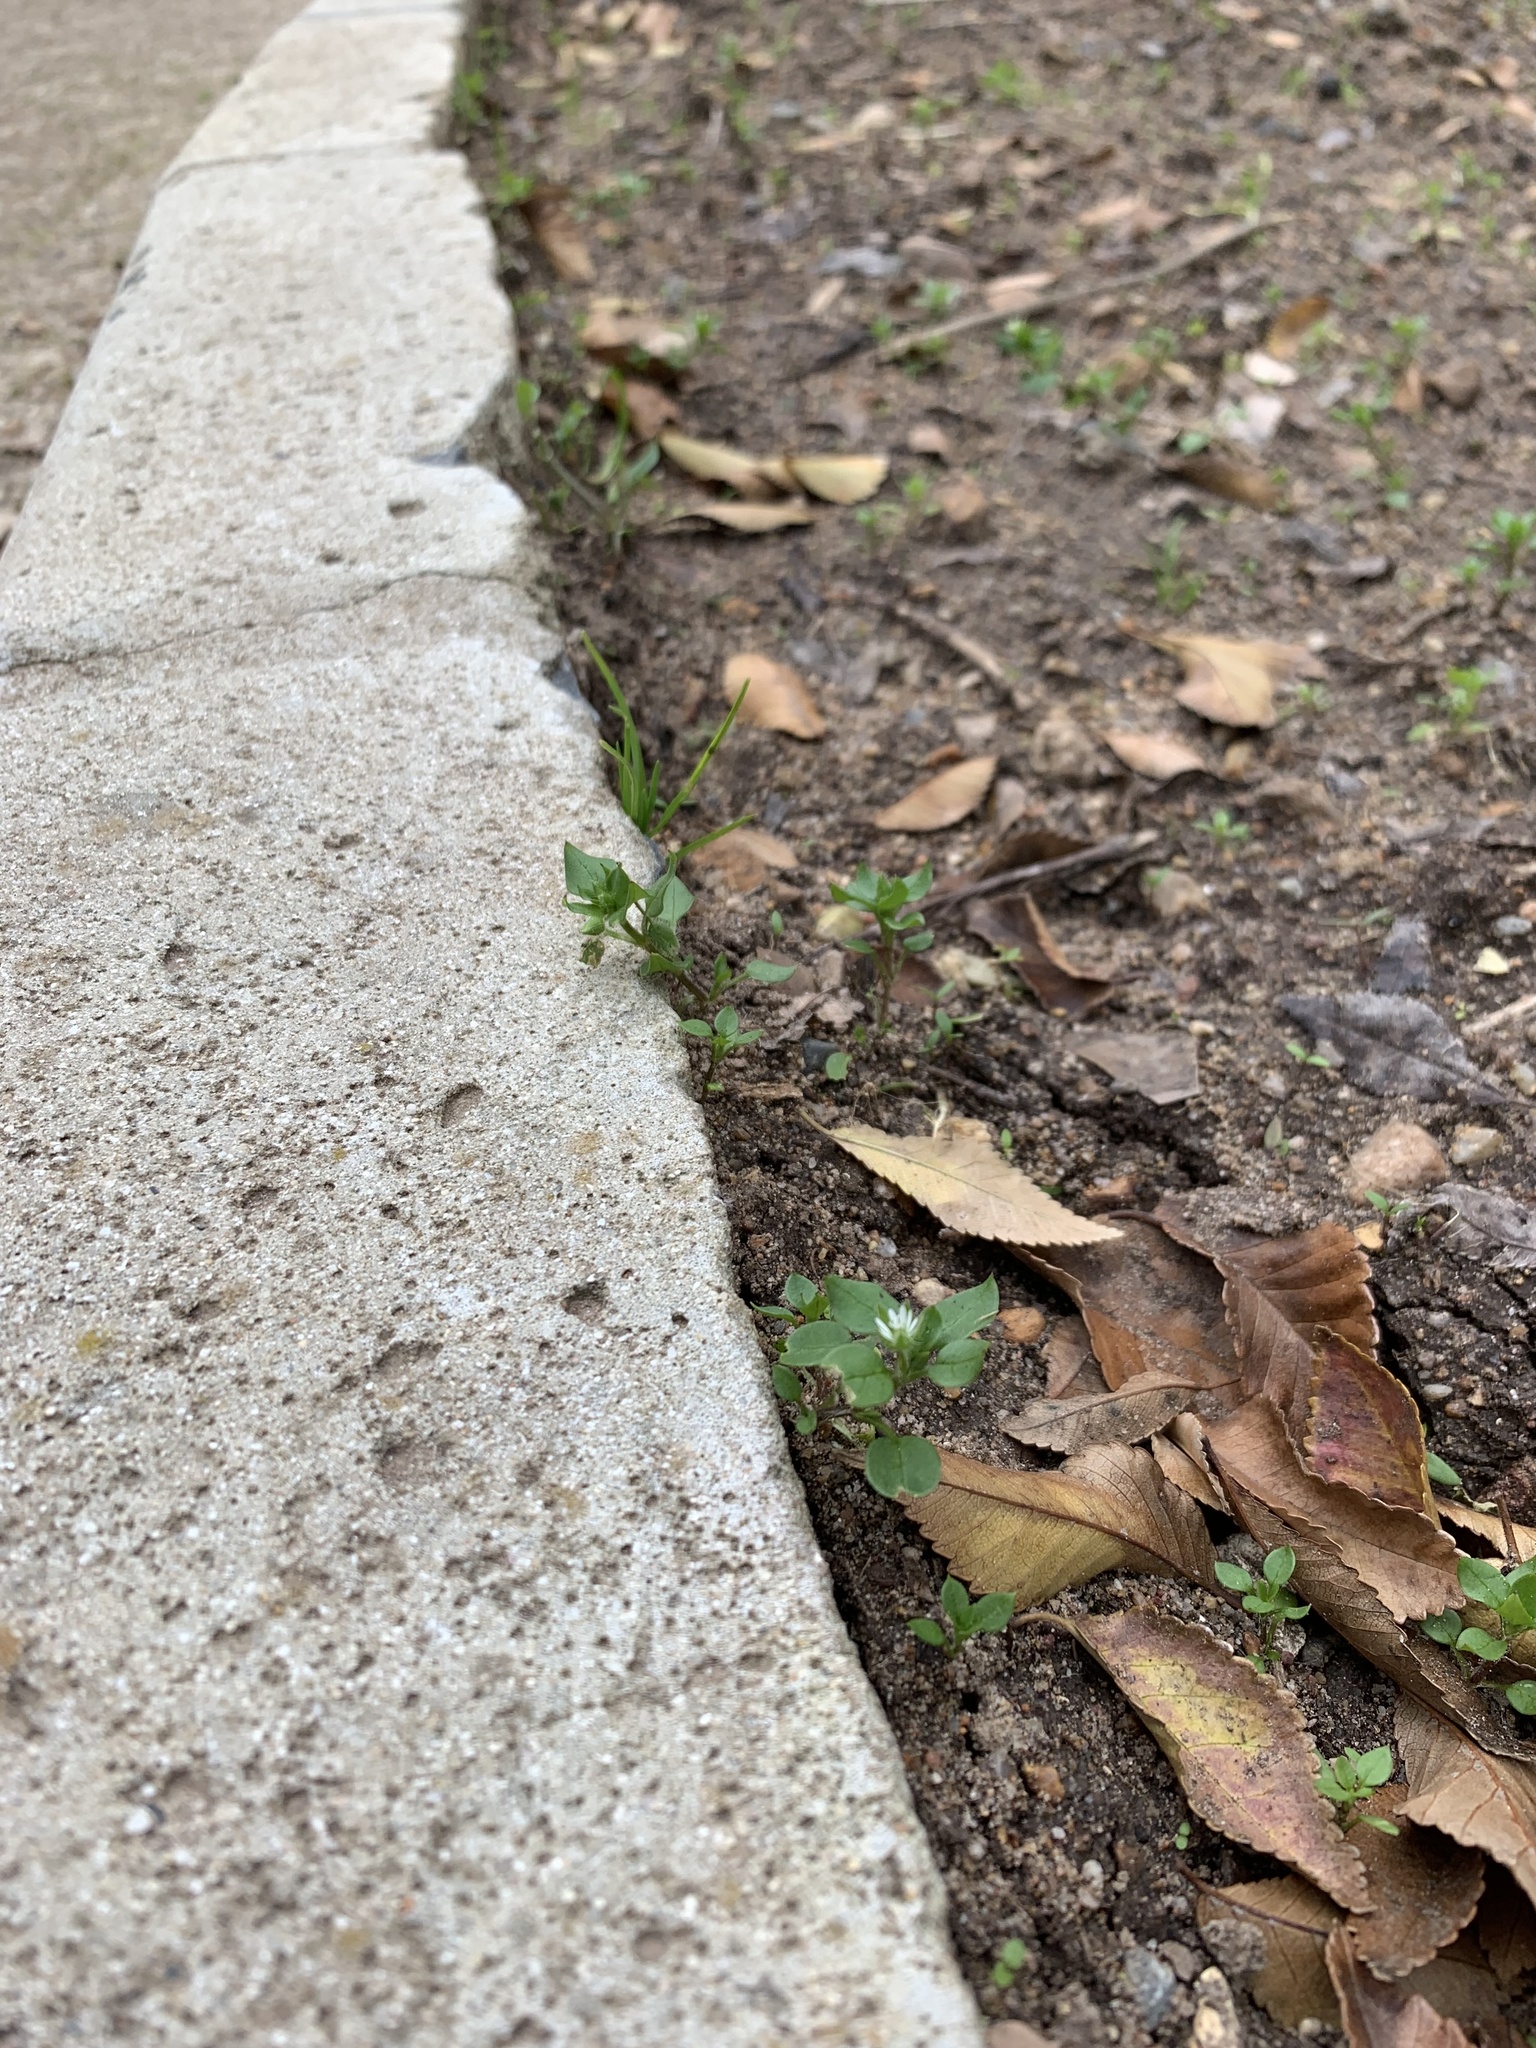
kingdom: Plantae
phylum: Tracheophyta
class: Magnoliopsida
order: Caryophyllales
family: Caryophyllaceae
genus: Stellaria
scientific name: Stellaria media
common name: Common chickweed
